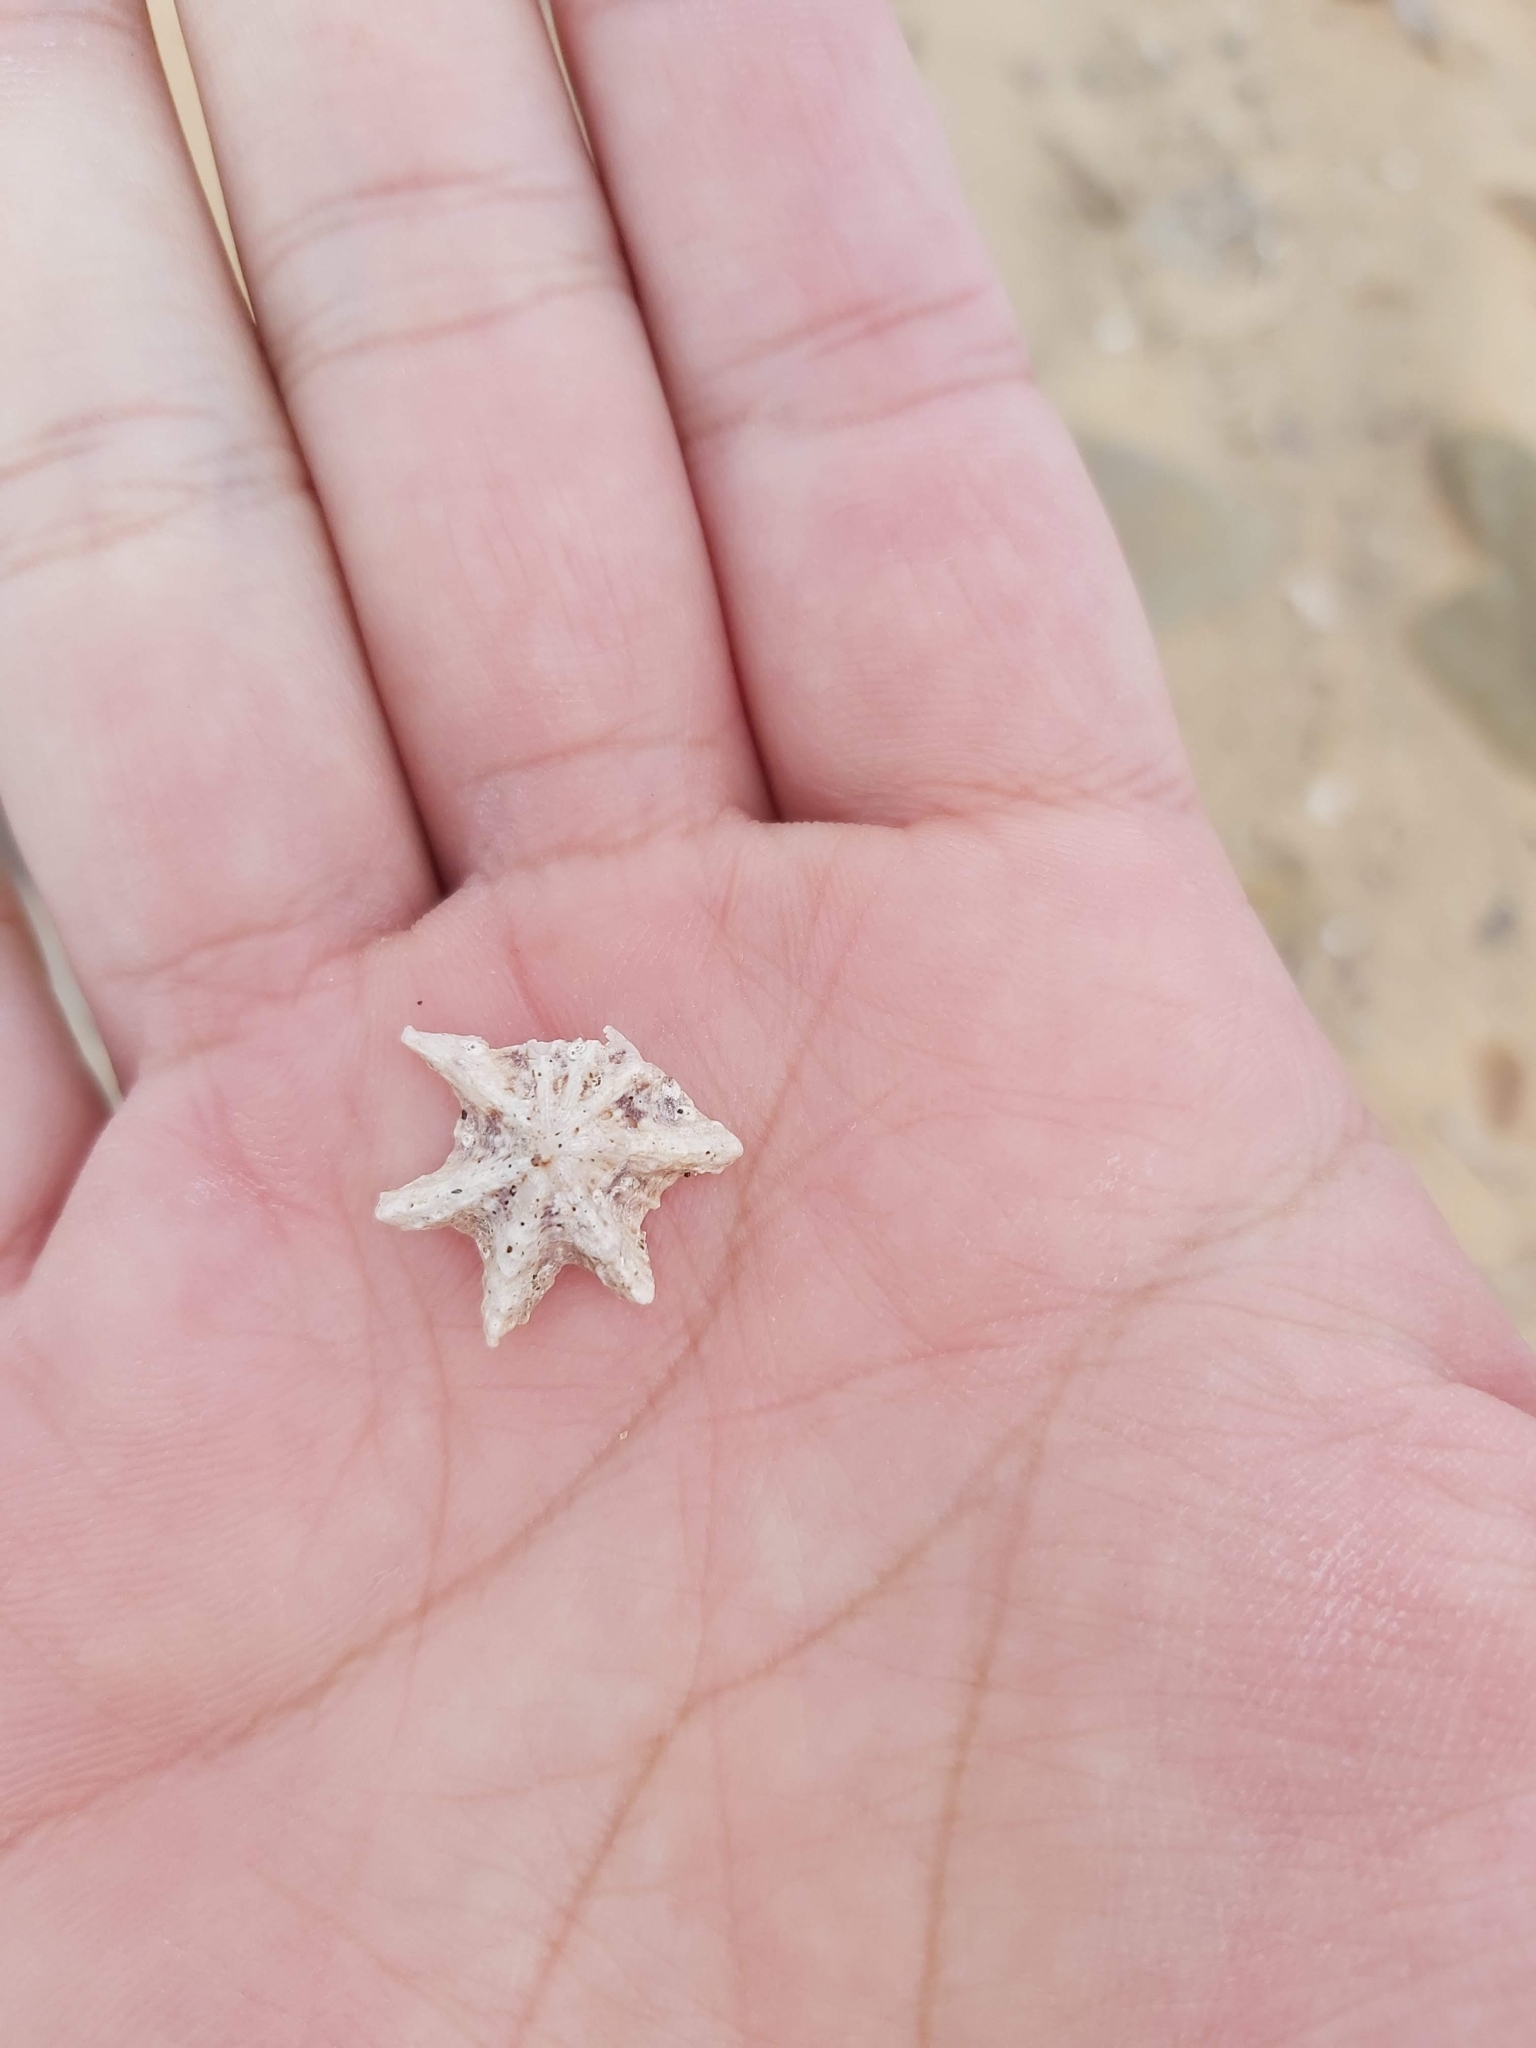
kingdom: Animalia
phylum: Mollusca
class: Gastropoda
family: Patellidae
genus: Scutellastra
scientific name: Scutellastra chapmani
